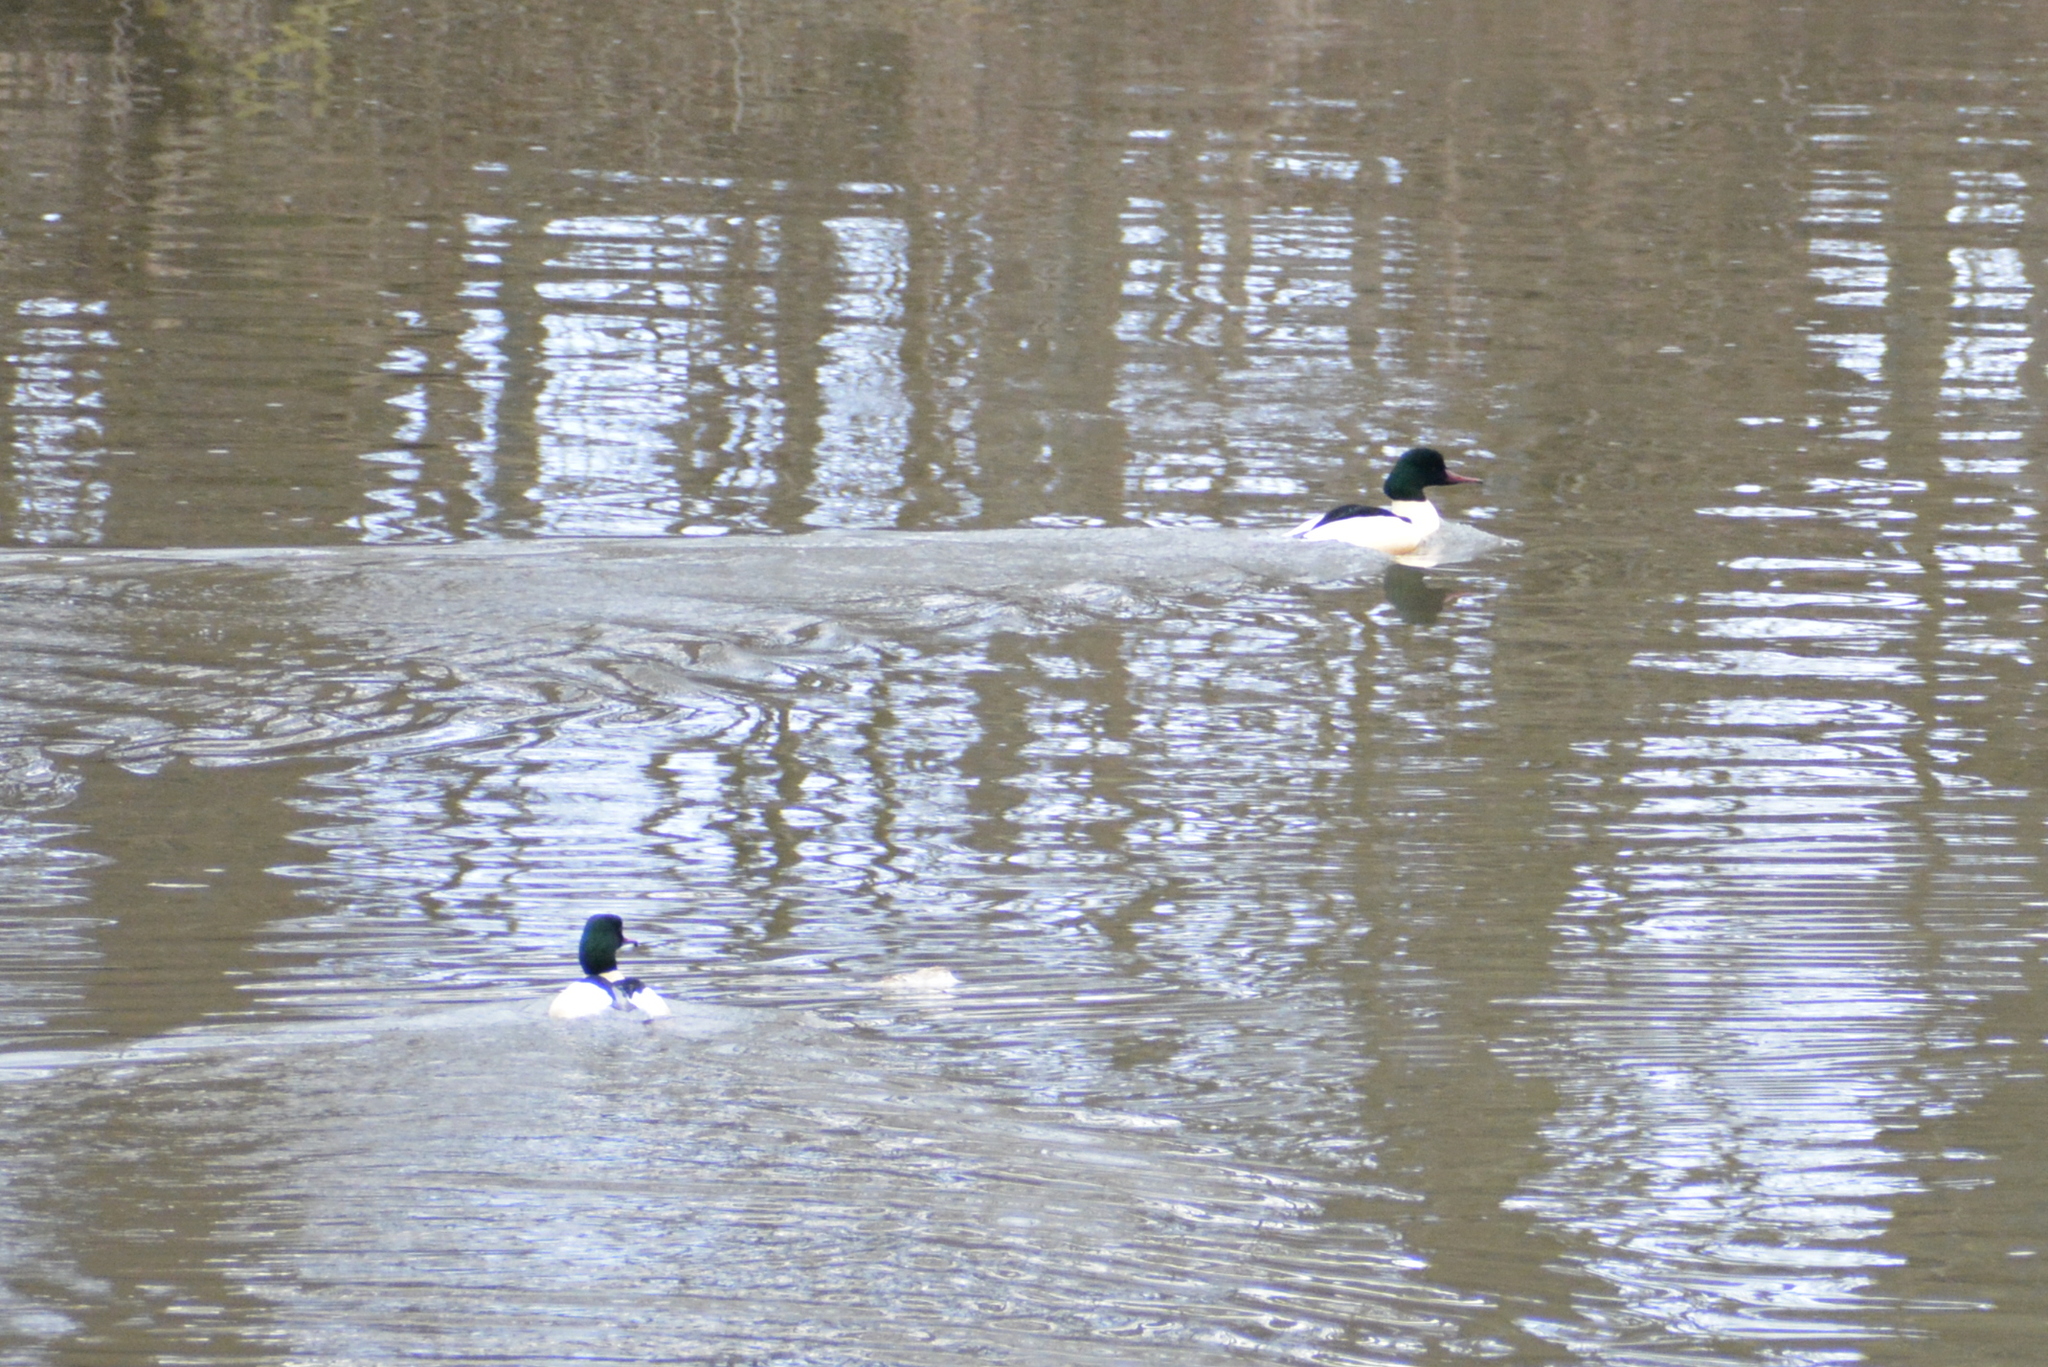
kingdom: Animalia
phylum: Chordata
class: Aves
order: Anseriformes
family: Anatidae
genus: Mergus
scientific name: Mergus merganser
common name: Common merganser
